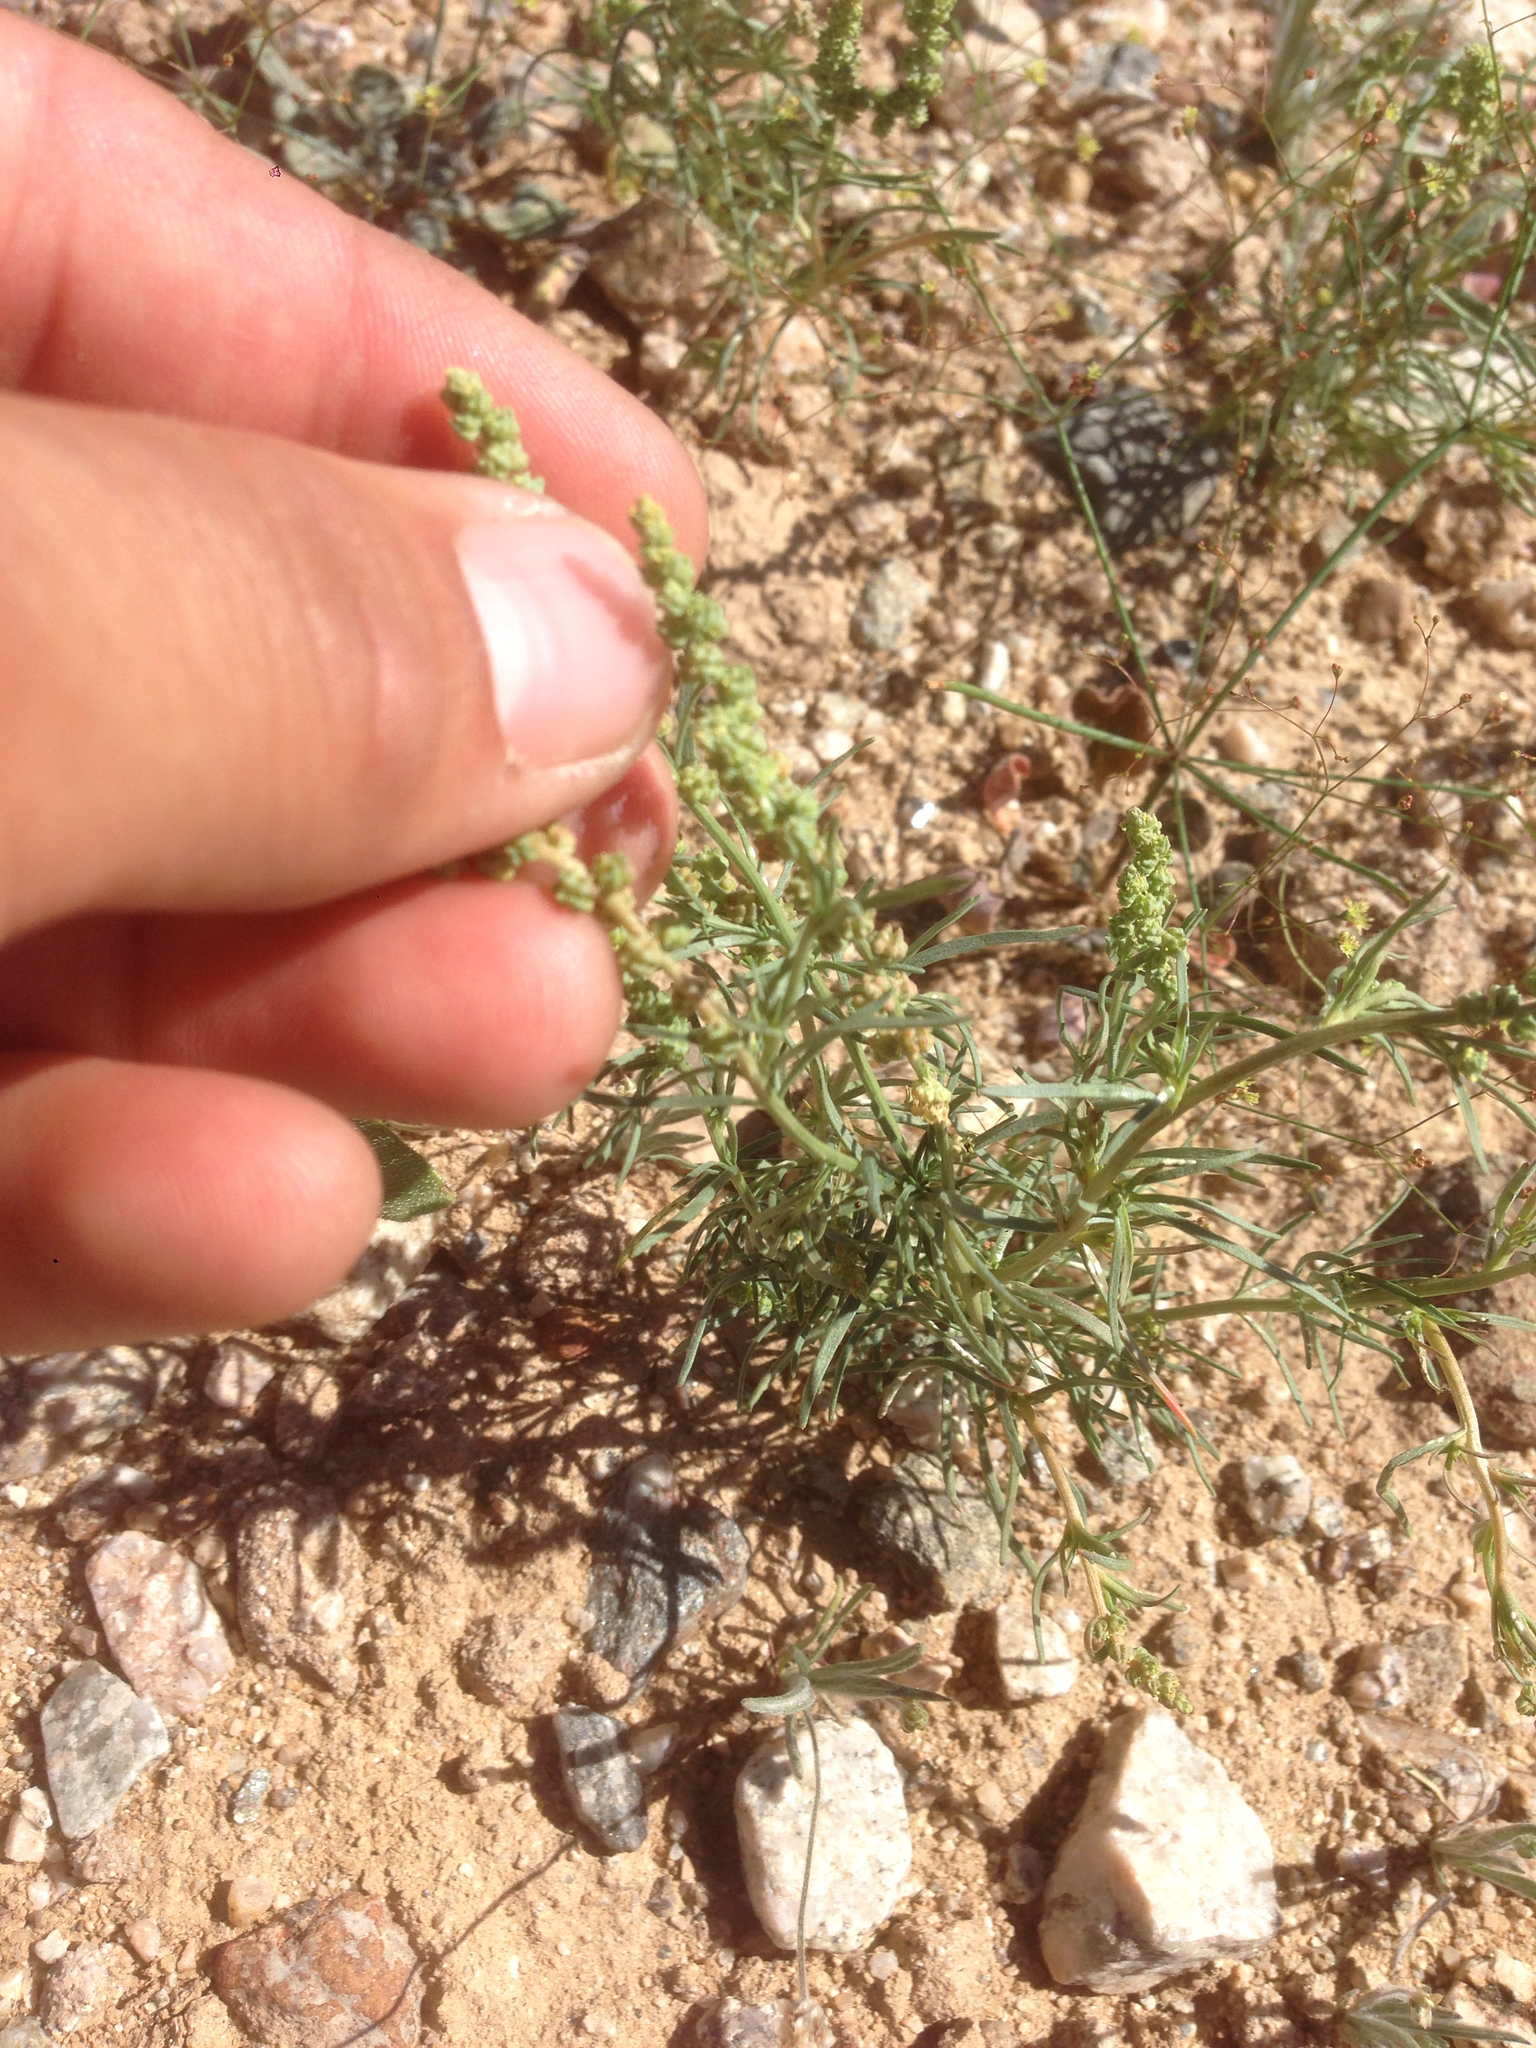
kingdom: Plantae
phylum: Tracheophyta
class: Magnoliopsida
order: Brassicales
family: Resedaceae
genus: Oligomeris
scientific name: Oligomeris linifolia
